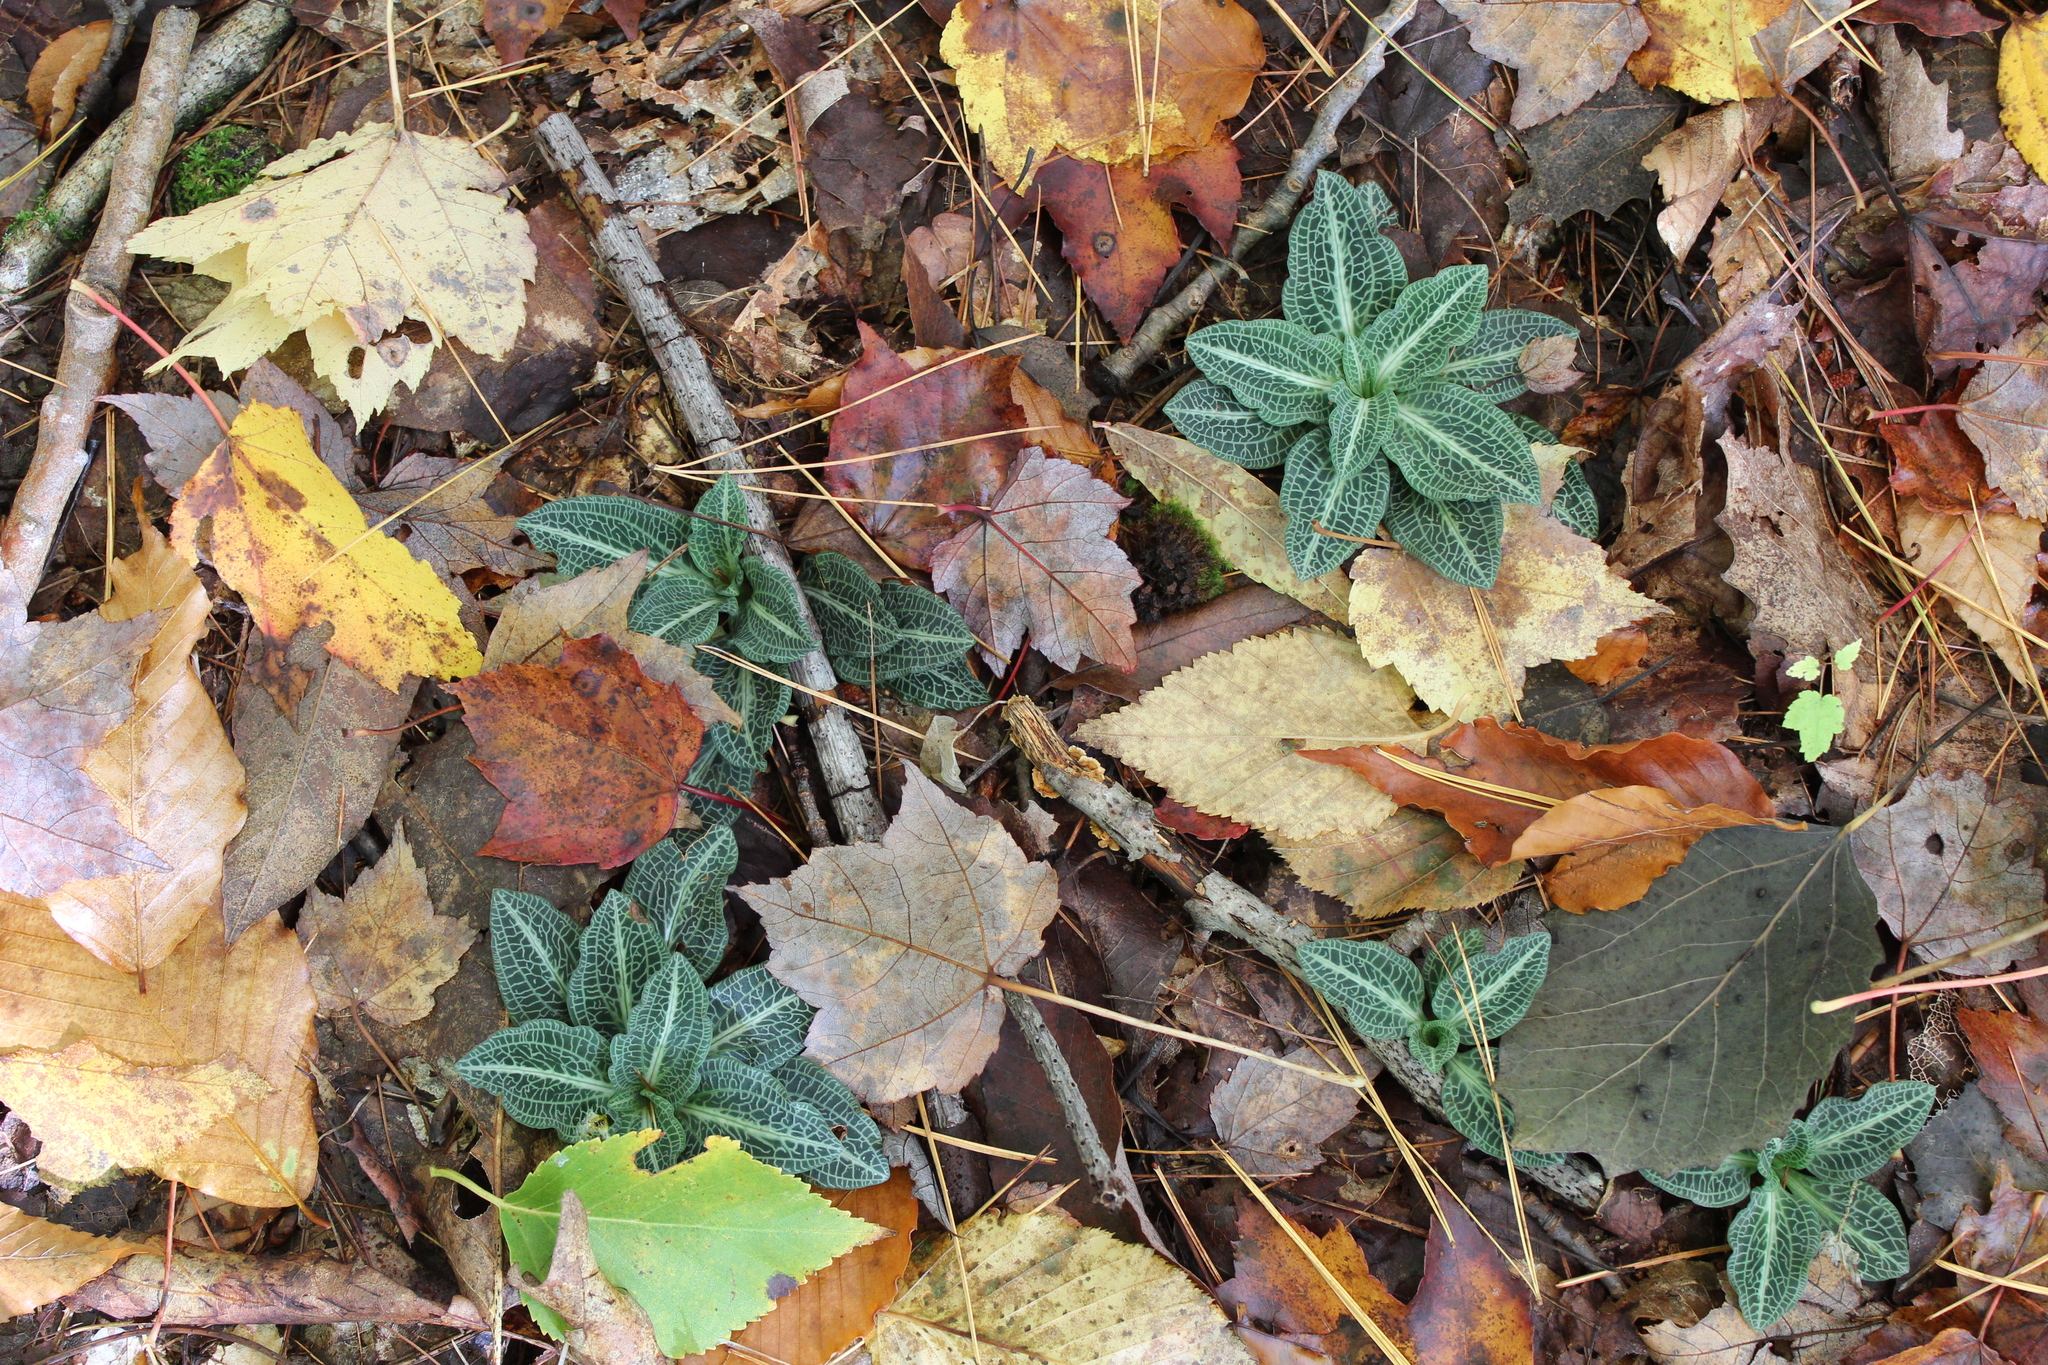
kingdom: Plantae
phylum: Tracheophyta
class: Liliopsida
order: Asparagales
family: Orchidaceae
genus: Goodyera
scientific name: Goodyera pubescens
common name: Downy rattlesnake-plantain
